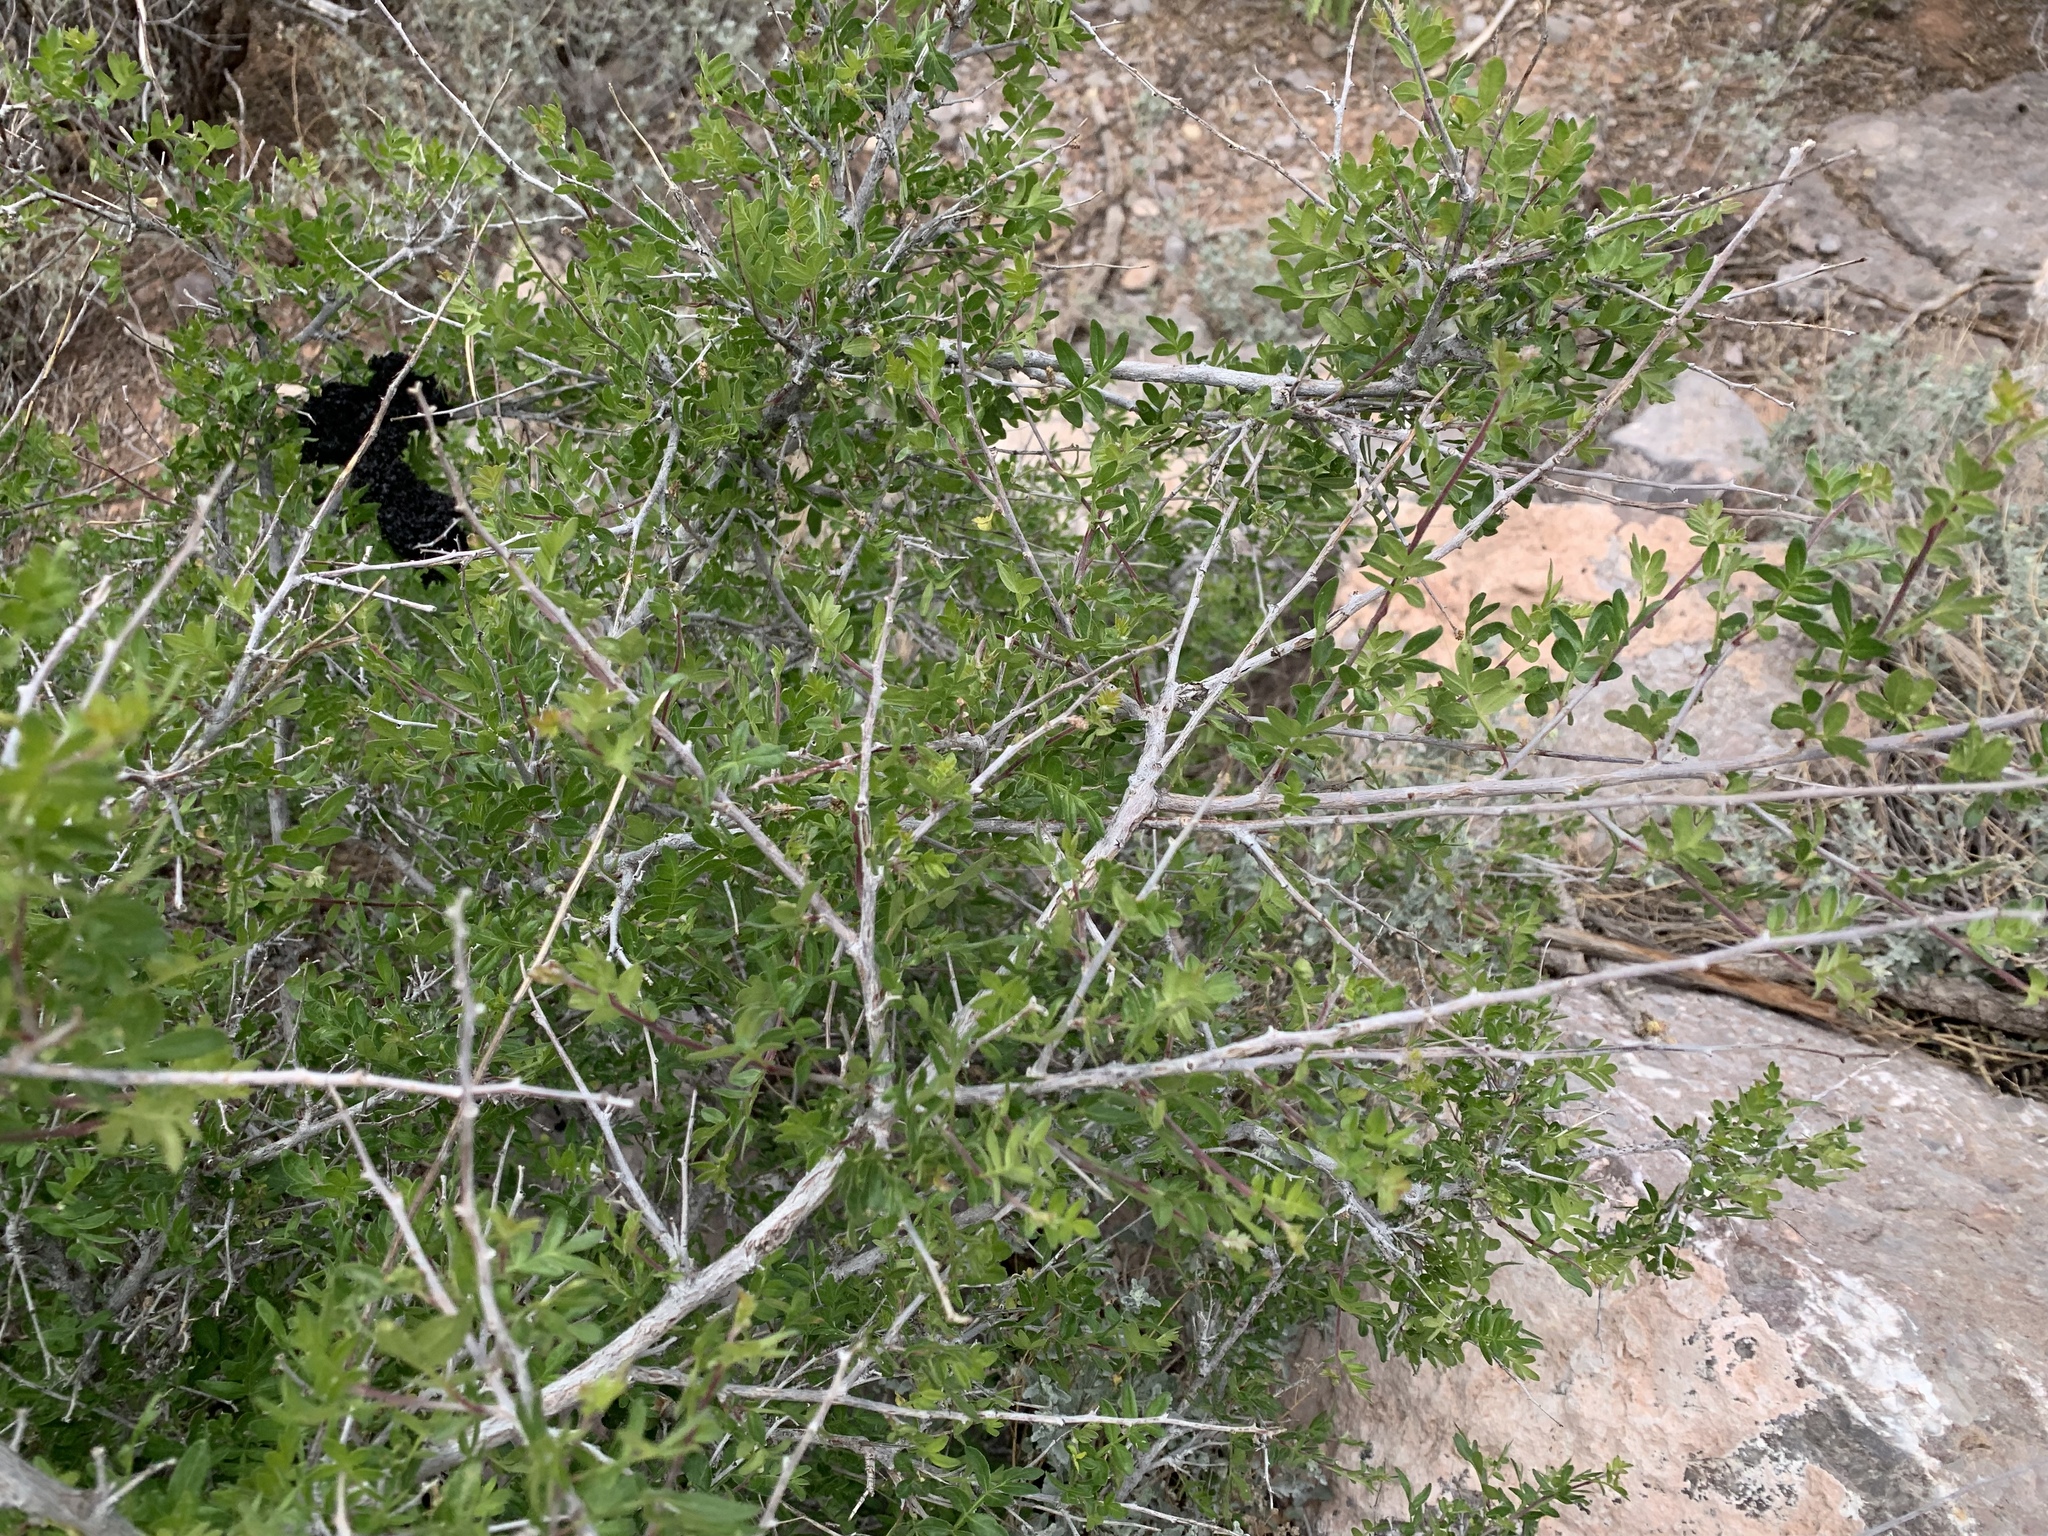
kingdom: Plantae
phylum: Tracheophyta
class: Magnoliopsida
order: Sapindales
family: Anacardiaceae
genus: Rhus
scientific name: Rhus microphylla
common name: Desert sumac
